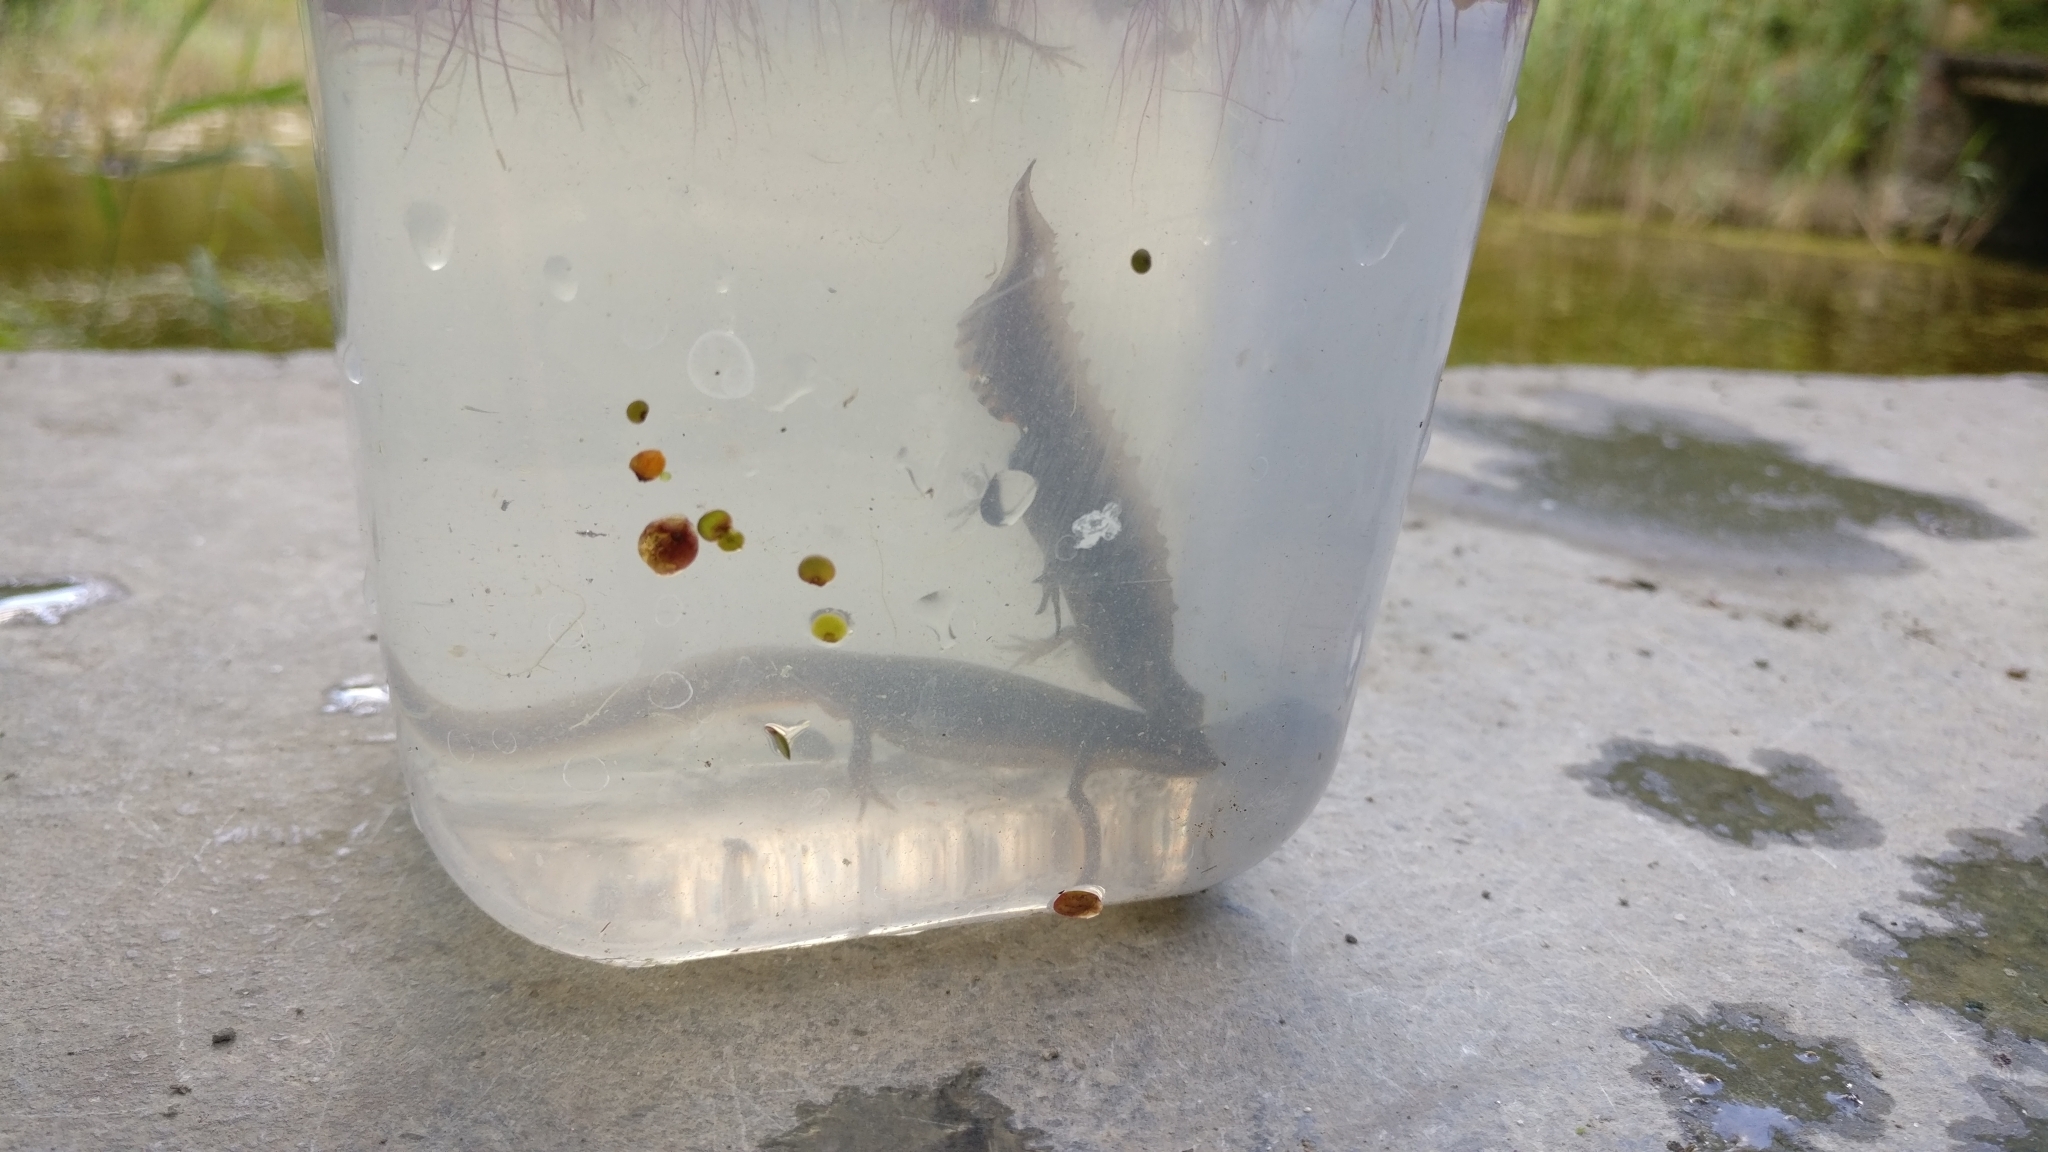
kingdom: Animalia
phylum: Chordata
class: Amphibia
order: Caudata
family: Salamandridae
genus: Lissotriton
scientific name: Lissotriton vulgaris
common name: Smooth newt
